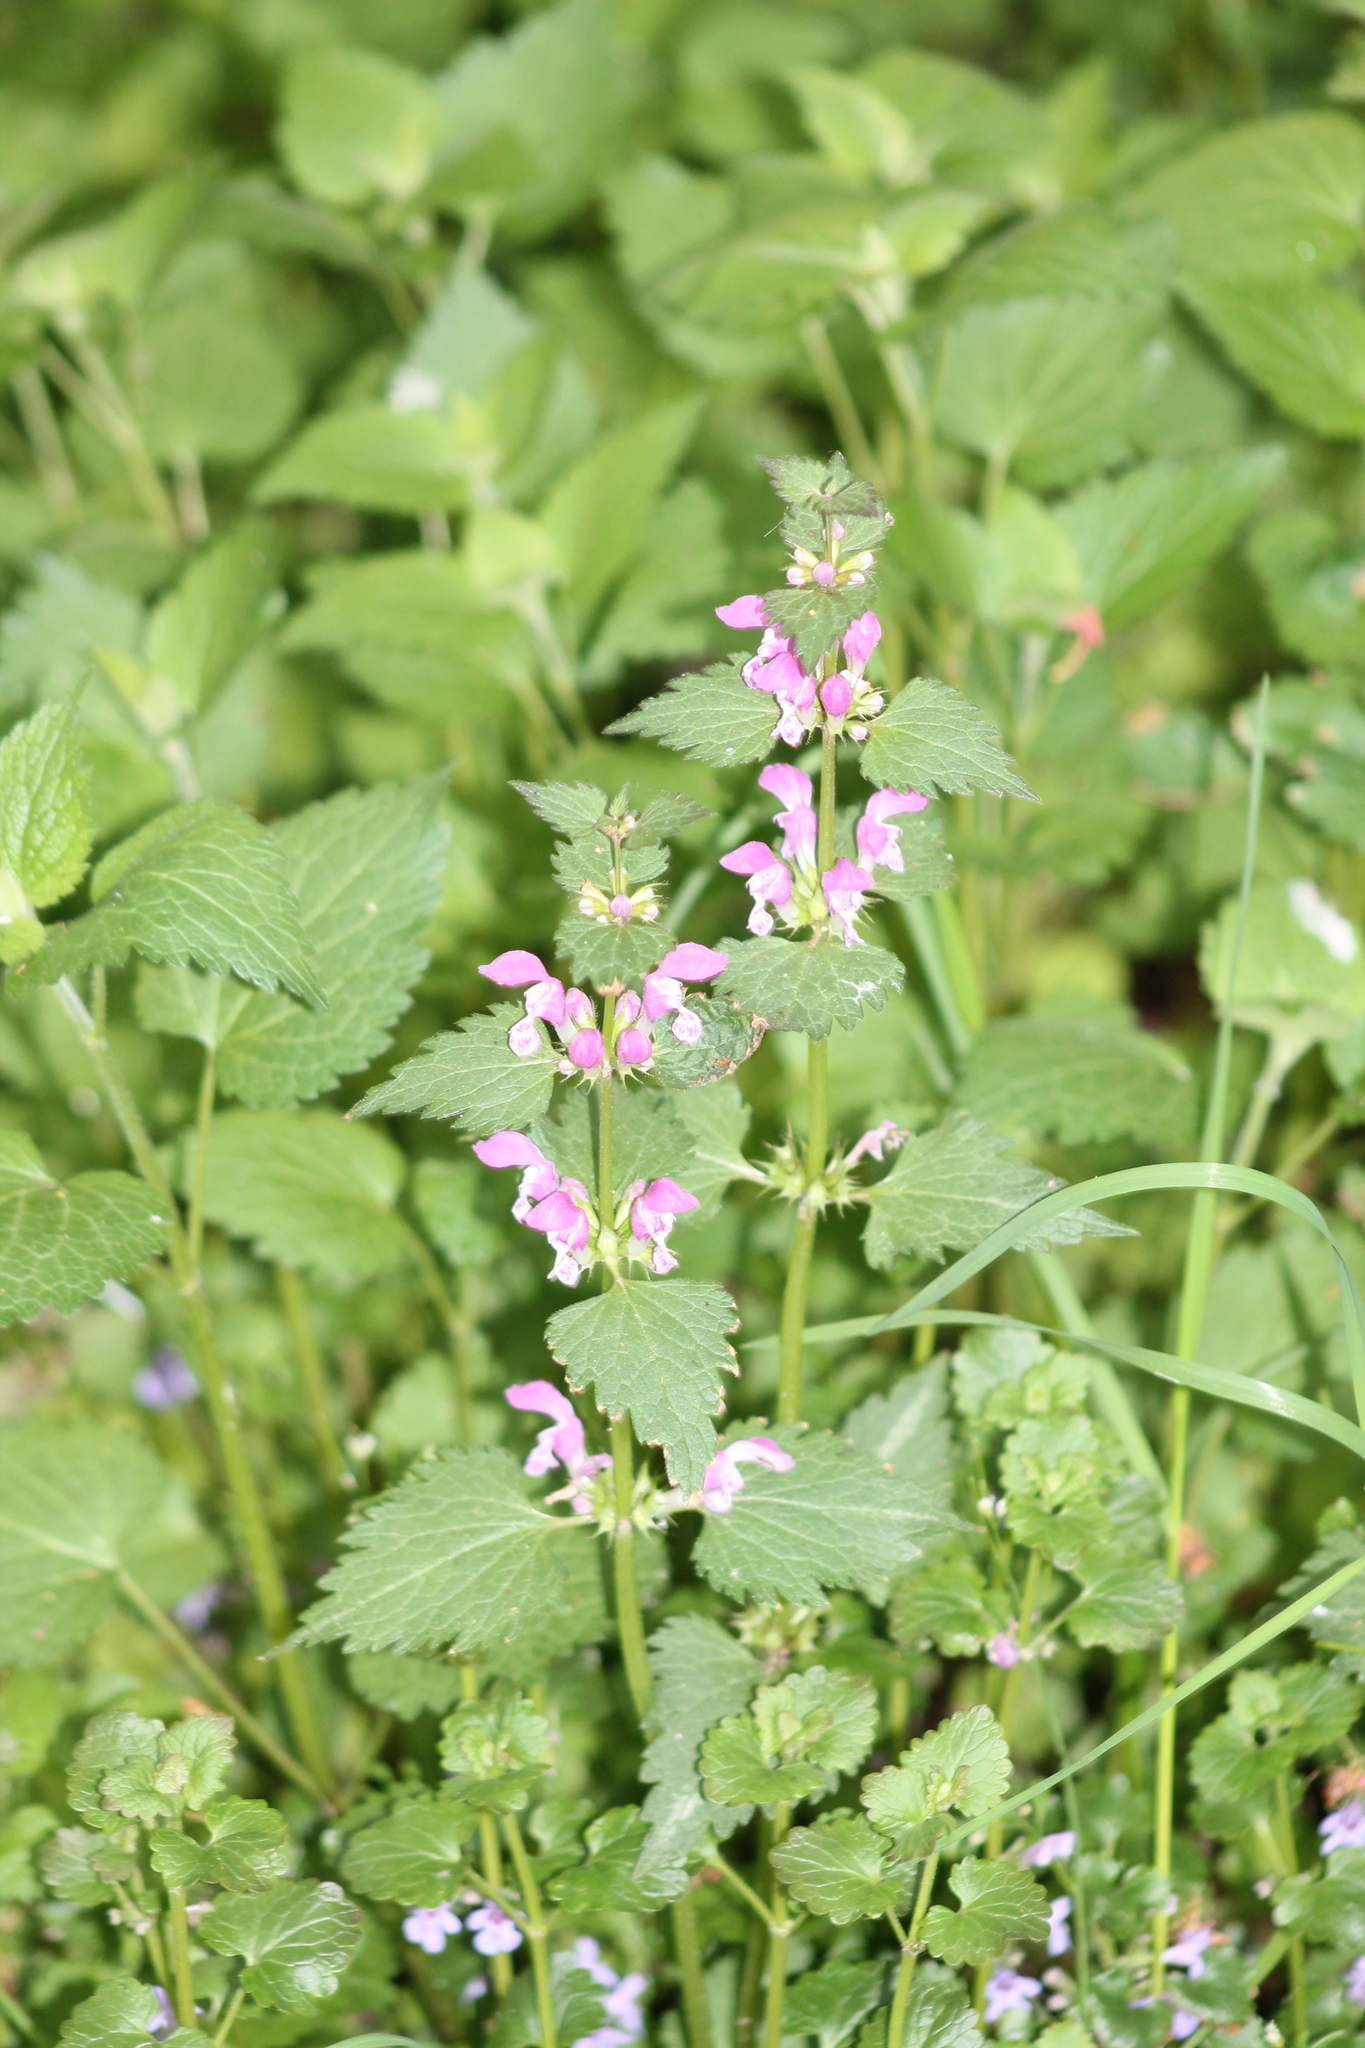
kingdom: Plantae
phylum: Tracheophyta
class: Magnoliopsida
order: Lamiales
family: Lamiaceae
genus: Lamium
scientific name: Lamium maculatum
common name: Spotted dead-nettle
